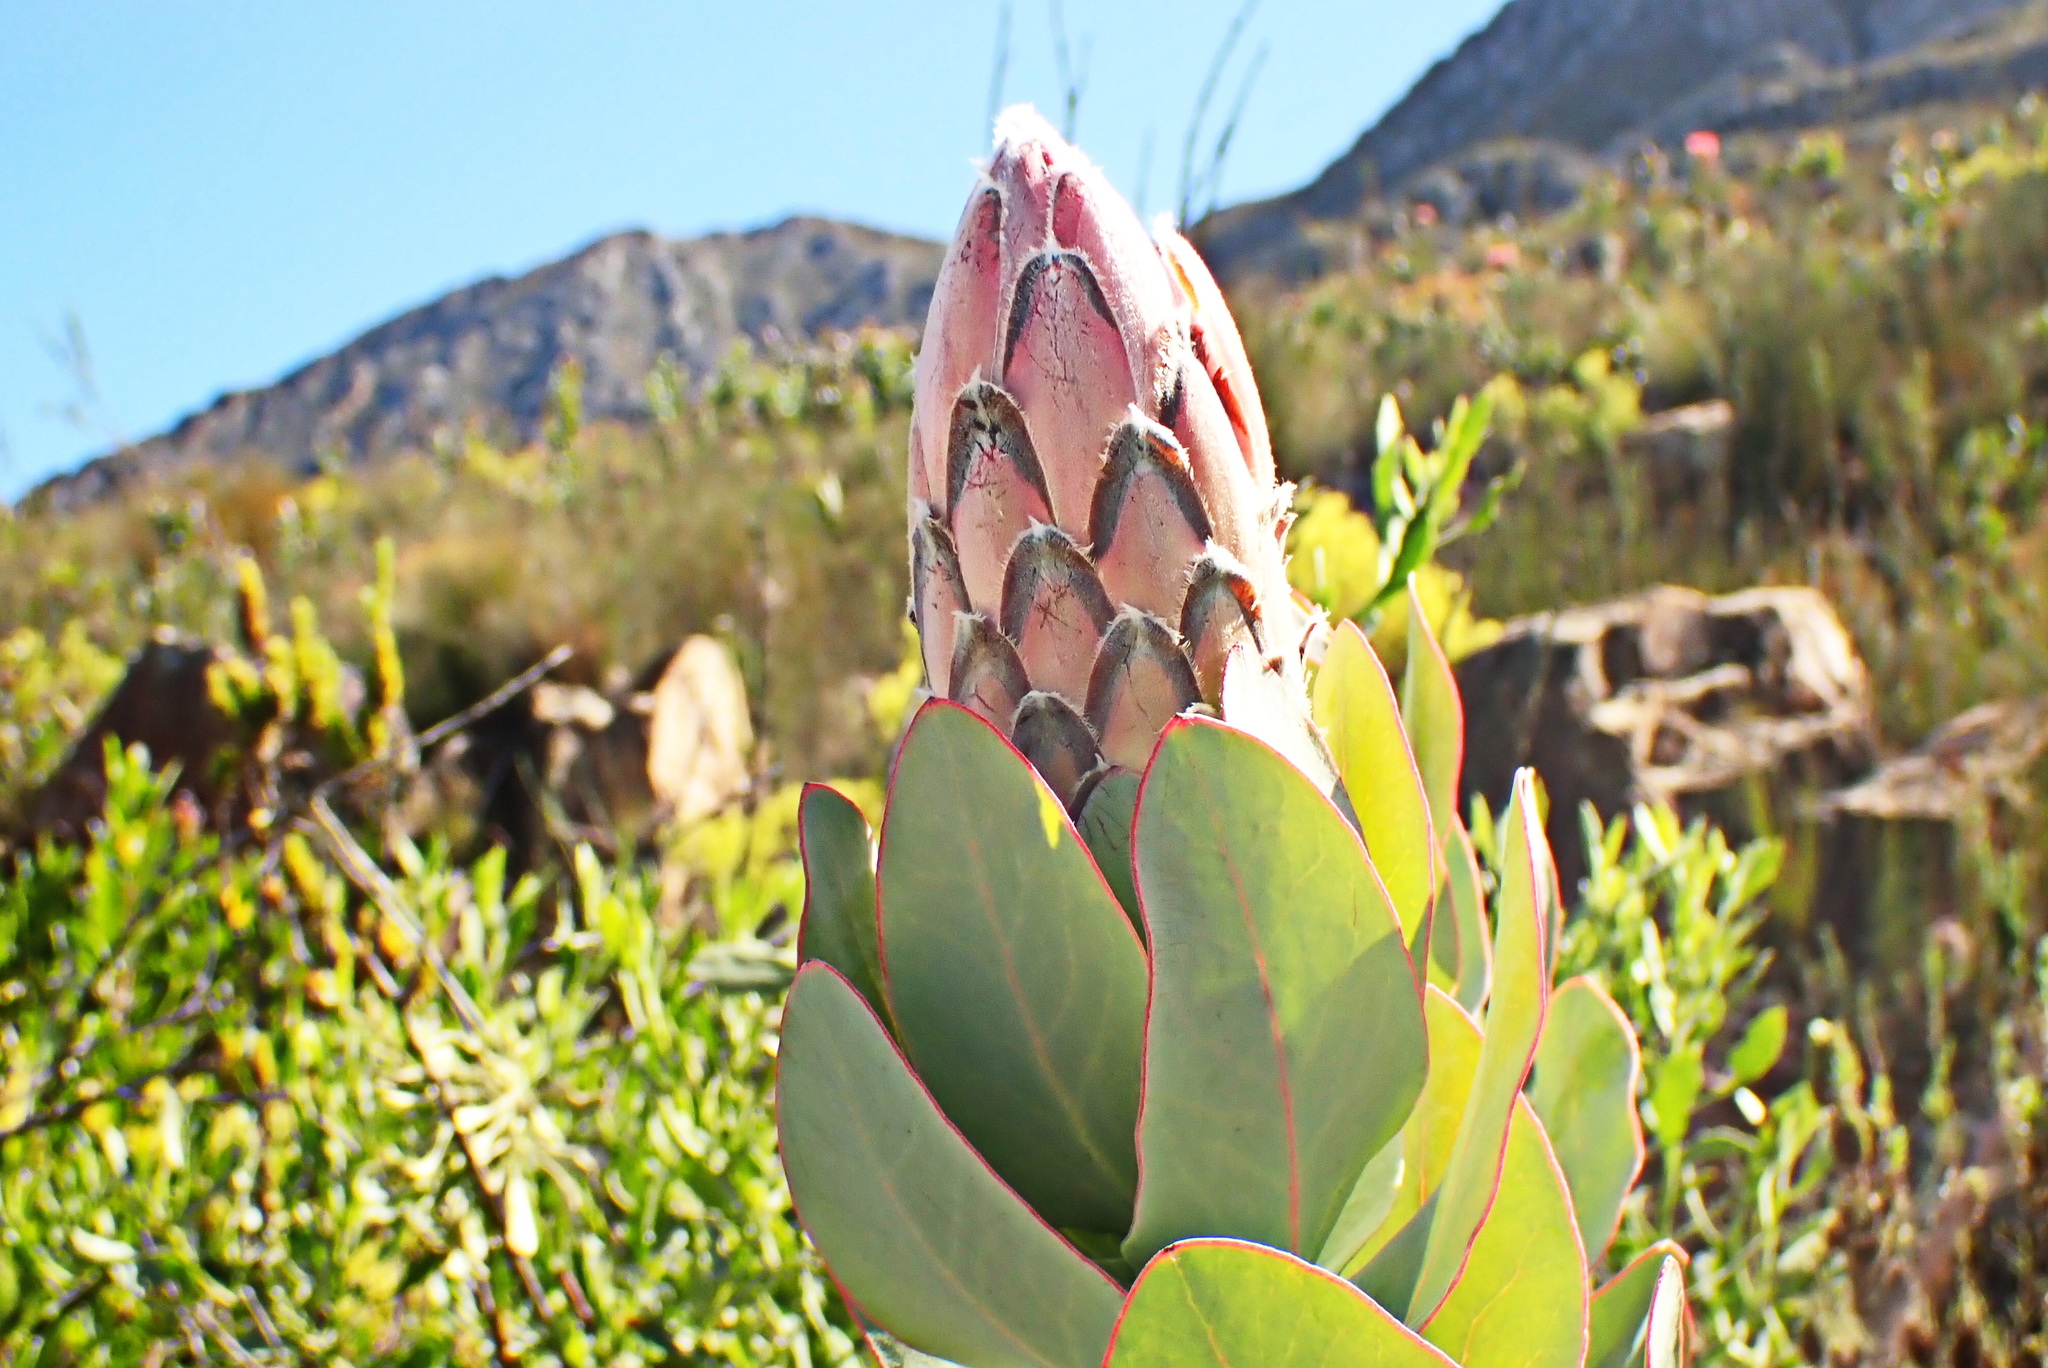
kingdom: Plantae
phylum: Tracheophyta
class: Magnoliopsida
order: Proteales
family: Proteaceae
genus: Protea
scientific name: Protea eximia
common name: Broad-leaved sugarbush
